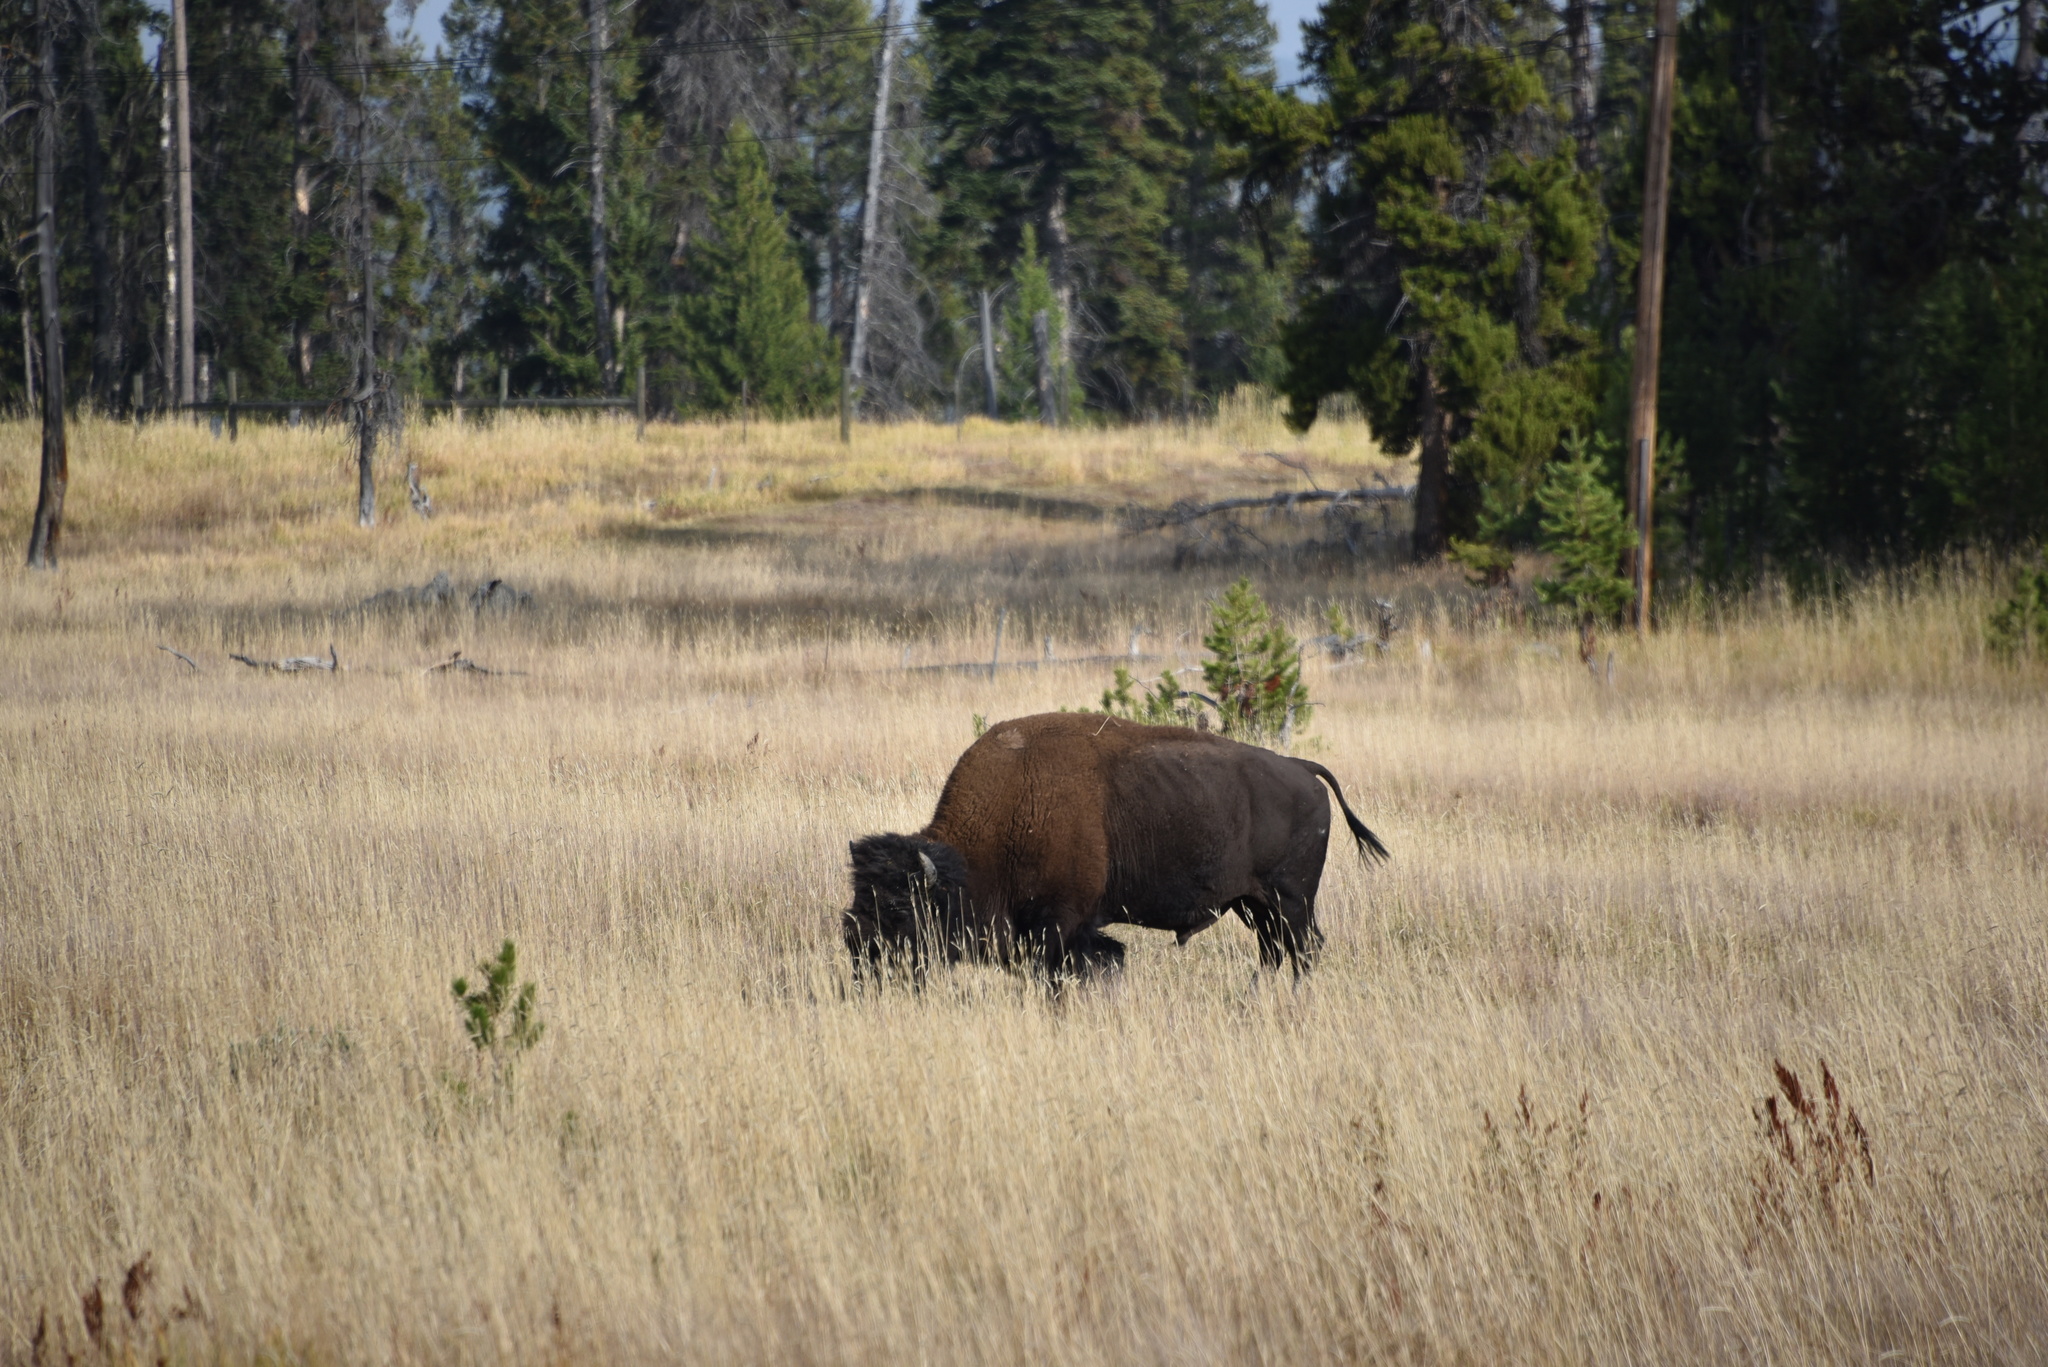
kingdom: Animalia
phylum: Chordata
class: Mammalia
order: Artiodactyla
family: Bovidae
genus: Bison
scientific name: Bison bison
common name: American bison
